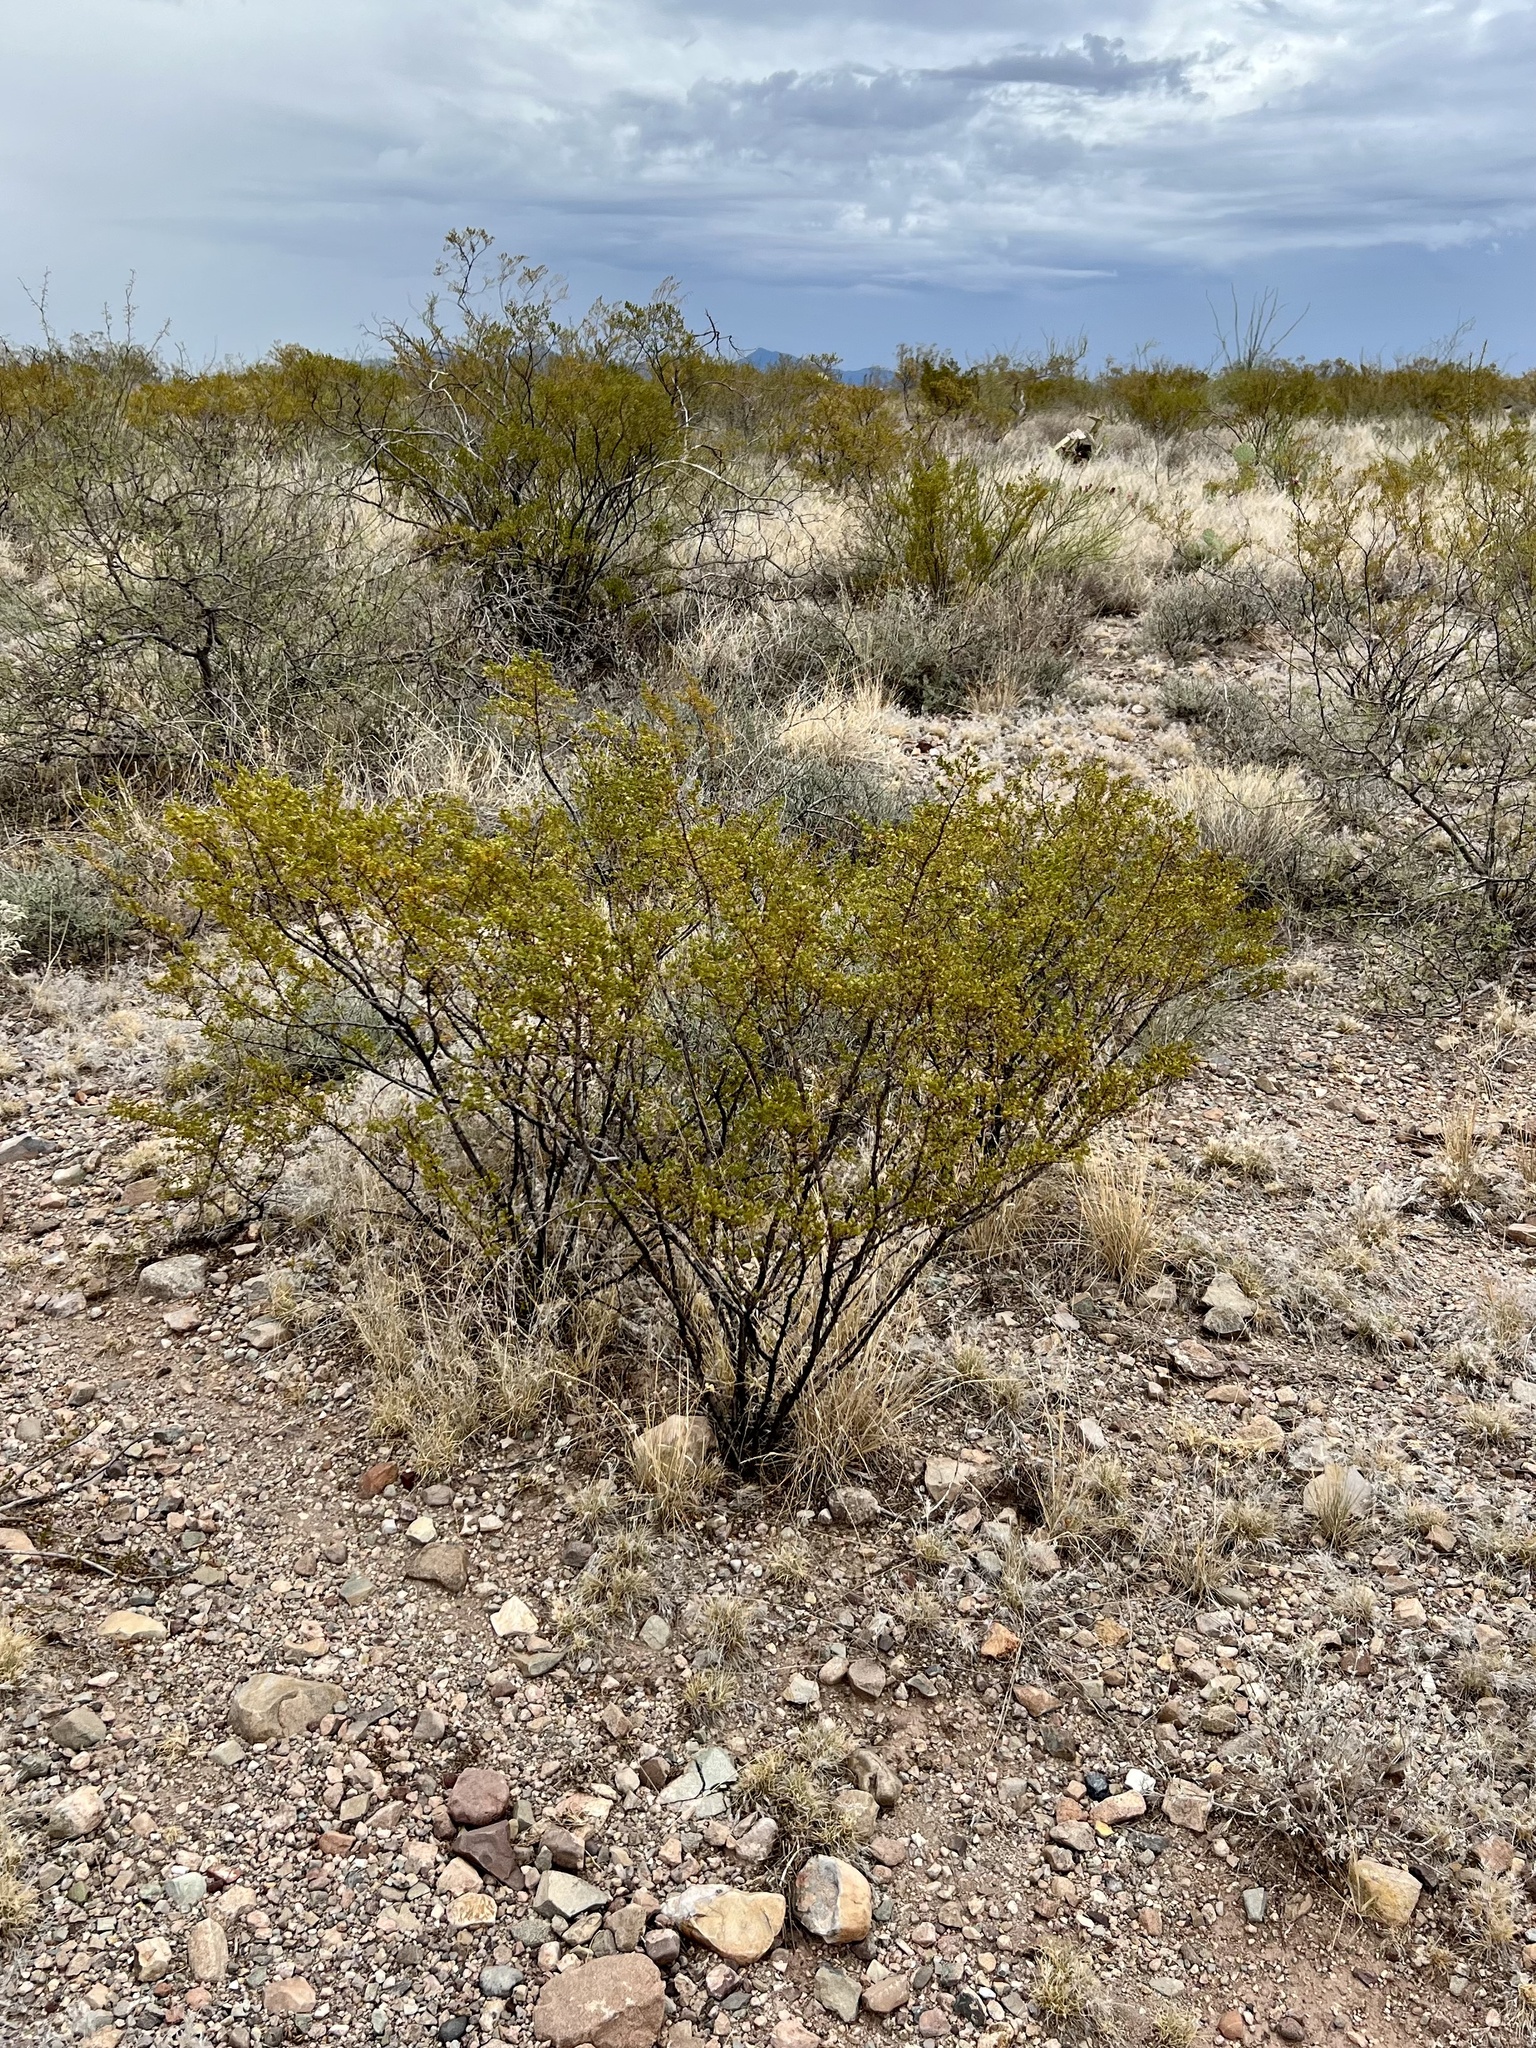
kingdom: Plantae
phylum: Tracheophyta
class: Magnoliopsida
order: Zygophyllales
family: Zygophyllaceae
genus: Larrea
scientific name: Larrea tridentata
